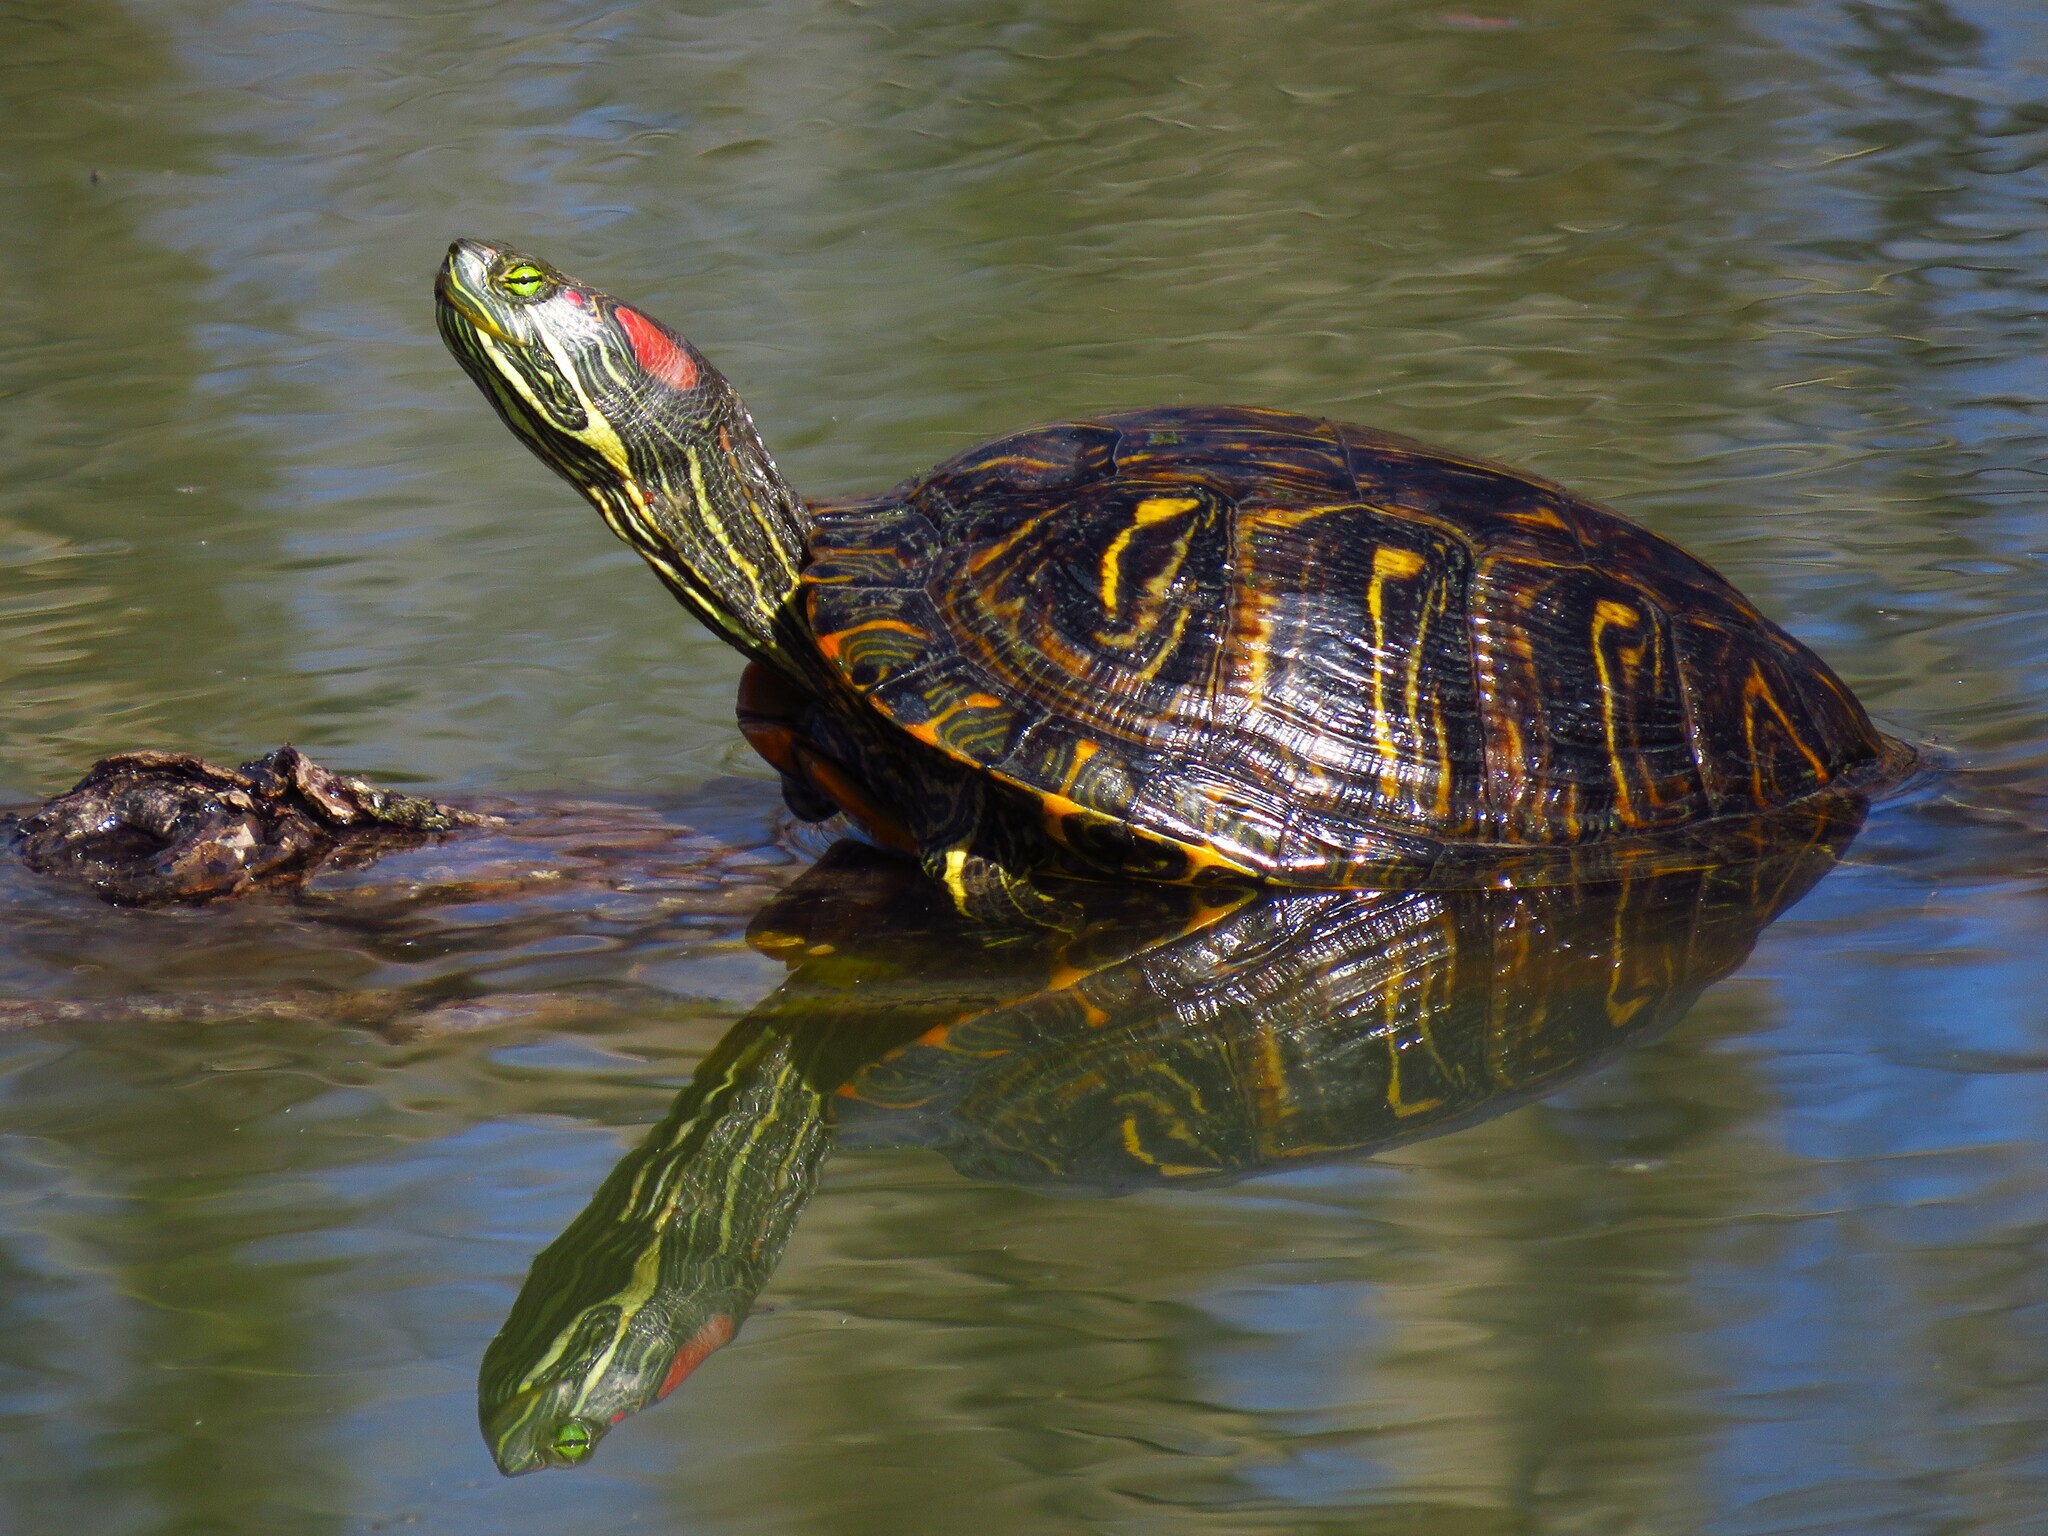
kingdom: Animalia
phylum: Chordata
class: Testudines
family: Emydidae
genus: Trachemys
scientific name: Trachemys scripta
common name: Slider
